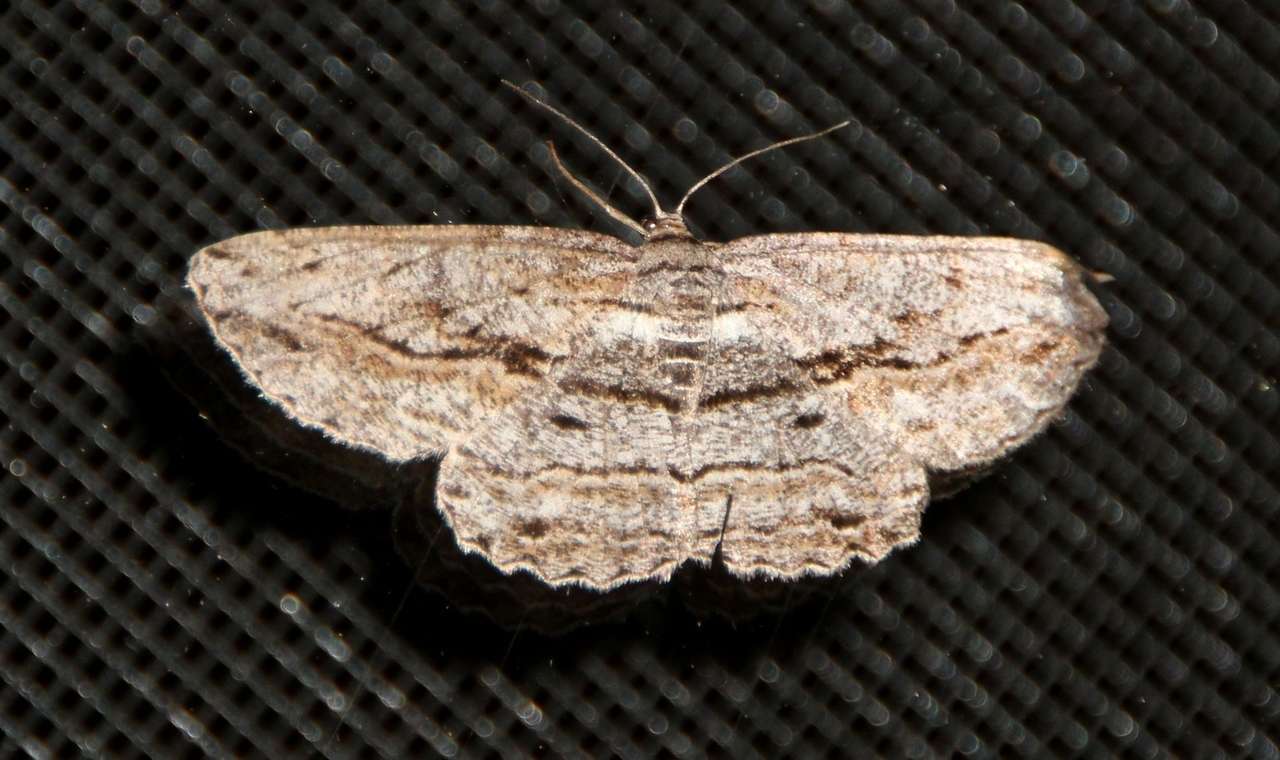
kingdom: Animalia
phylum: Arthropoda
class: Insecta
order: Lepidoptera
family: Geometridae
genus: Scioglyptis
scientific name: Scioglyptis chionomera
